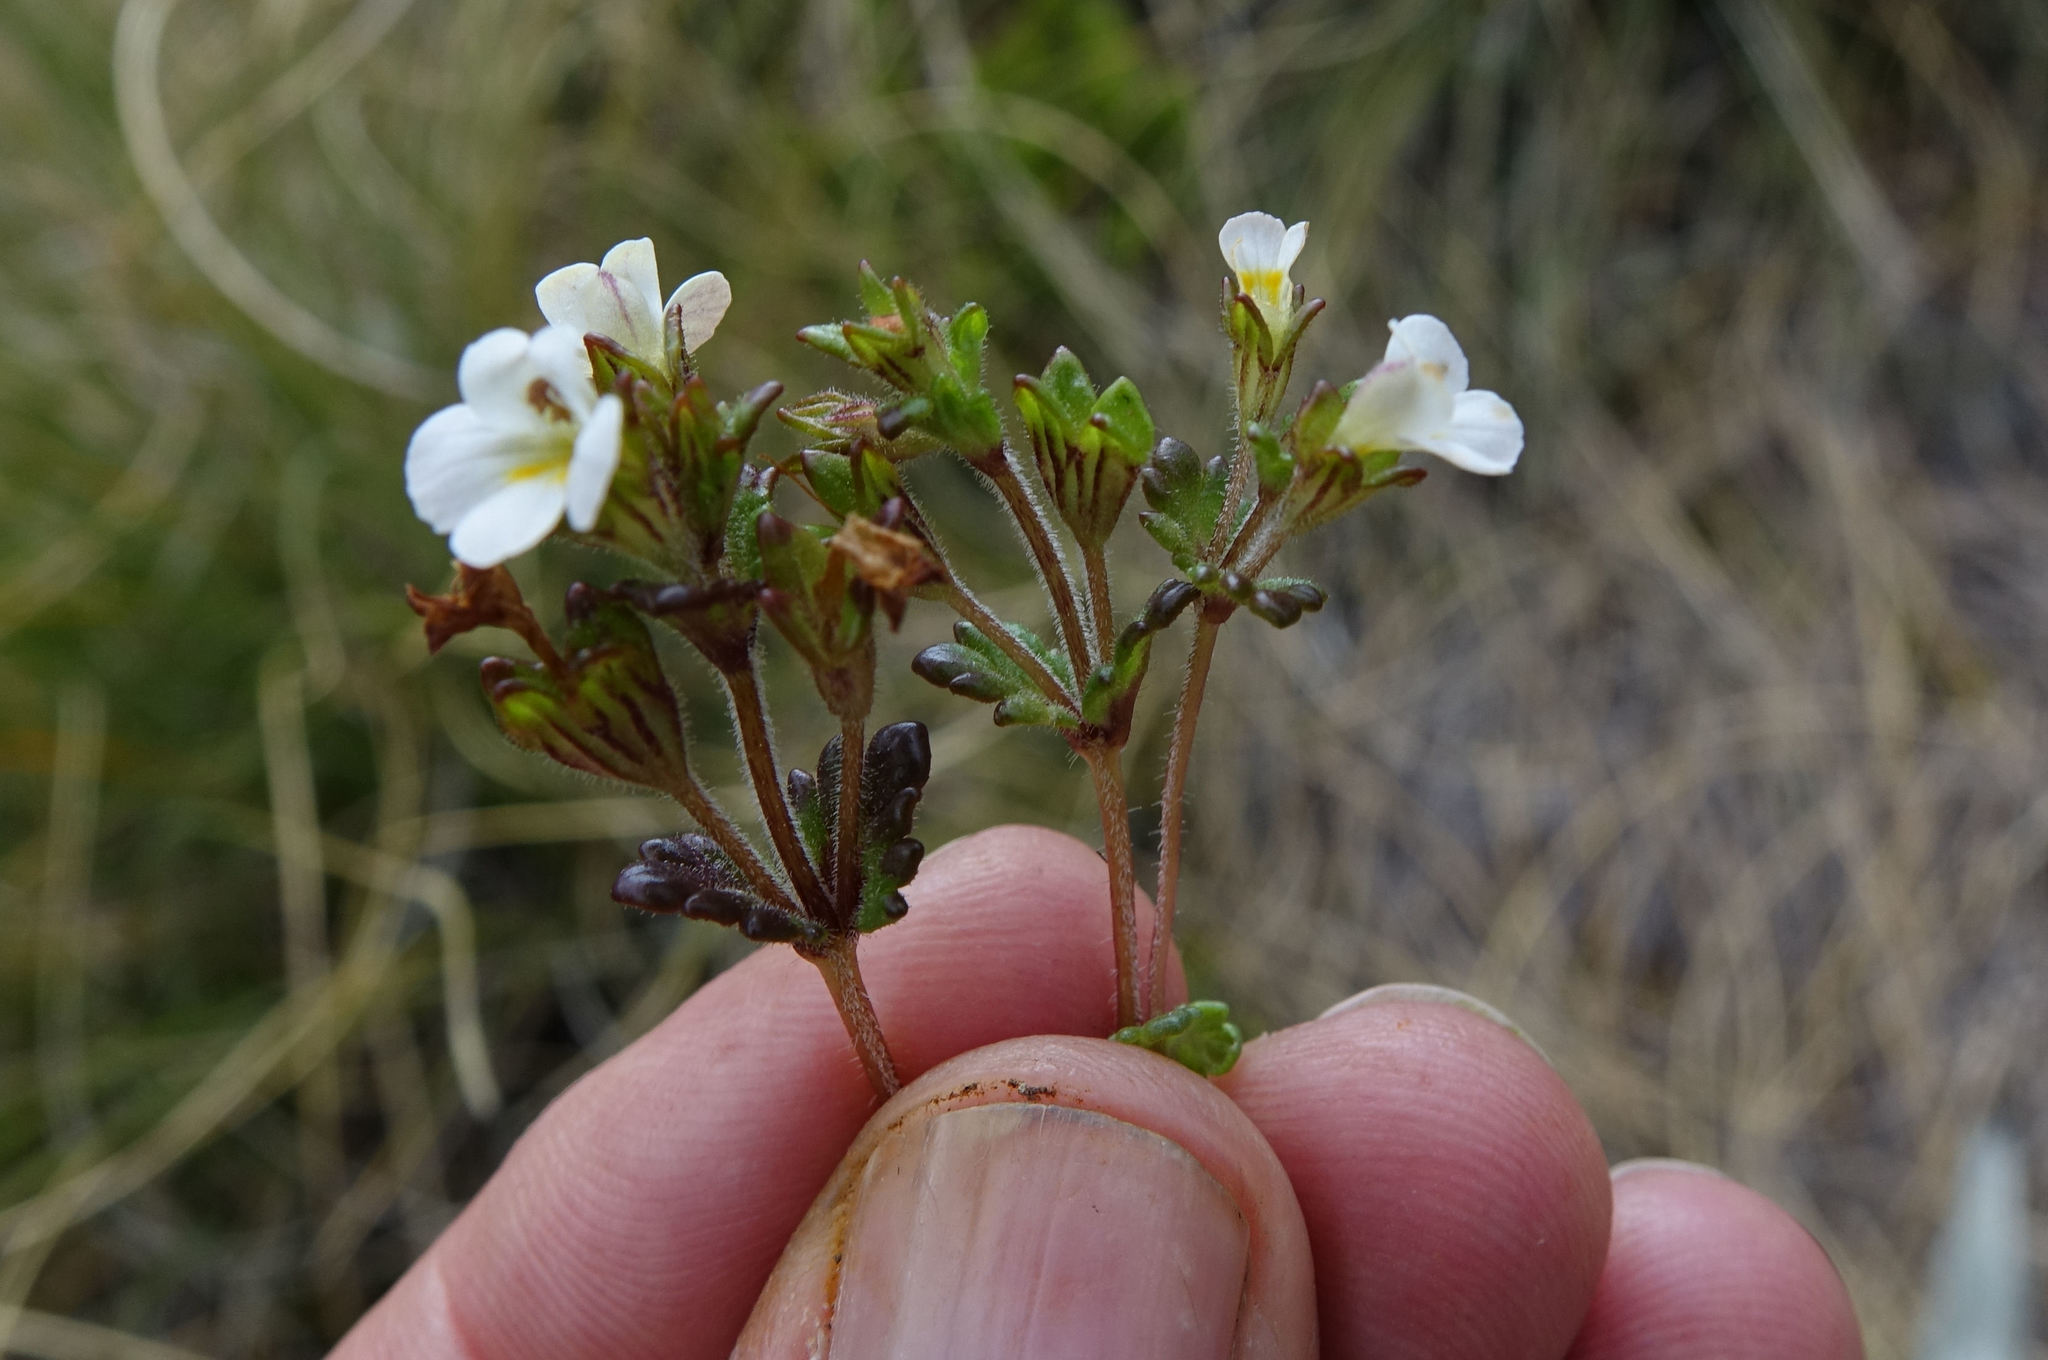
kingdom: Plantae
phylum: Tracheophyta
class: Magnoliopsida
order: Lamiales
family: Orobanchaceae
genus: Euphrasia
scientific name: Euphrasia australis
